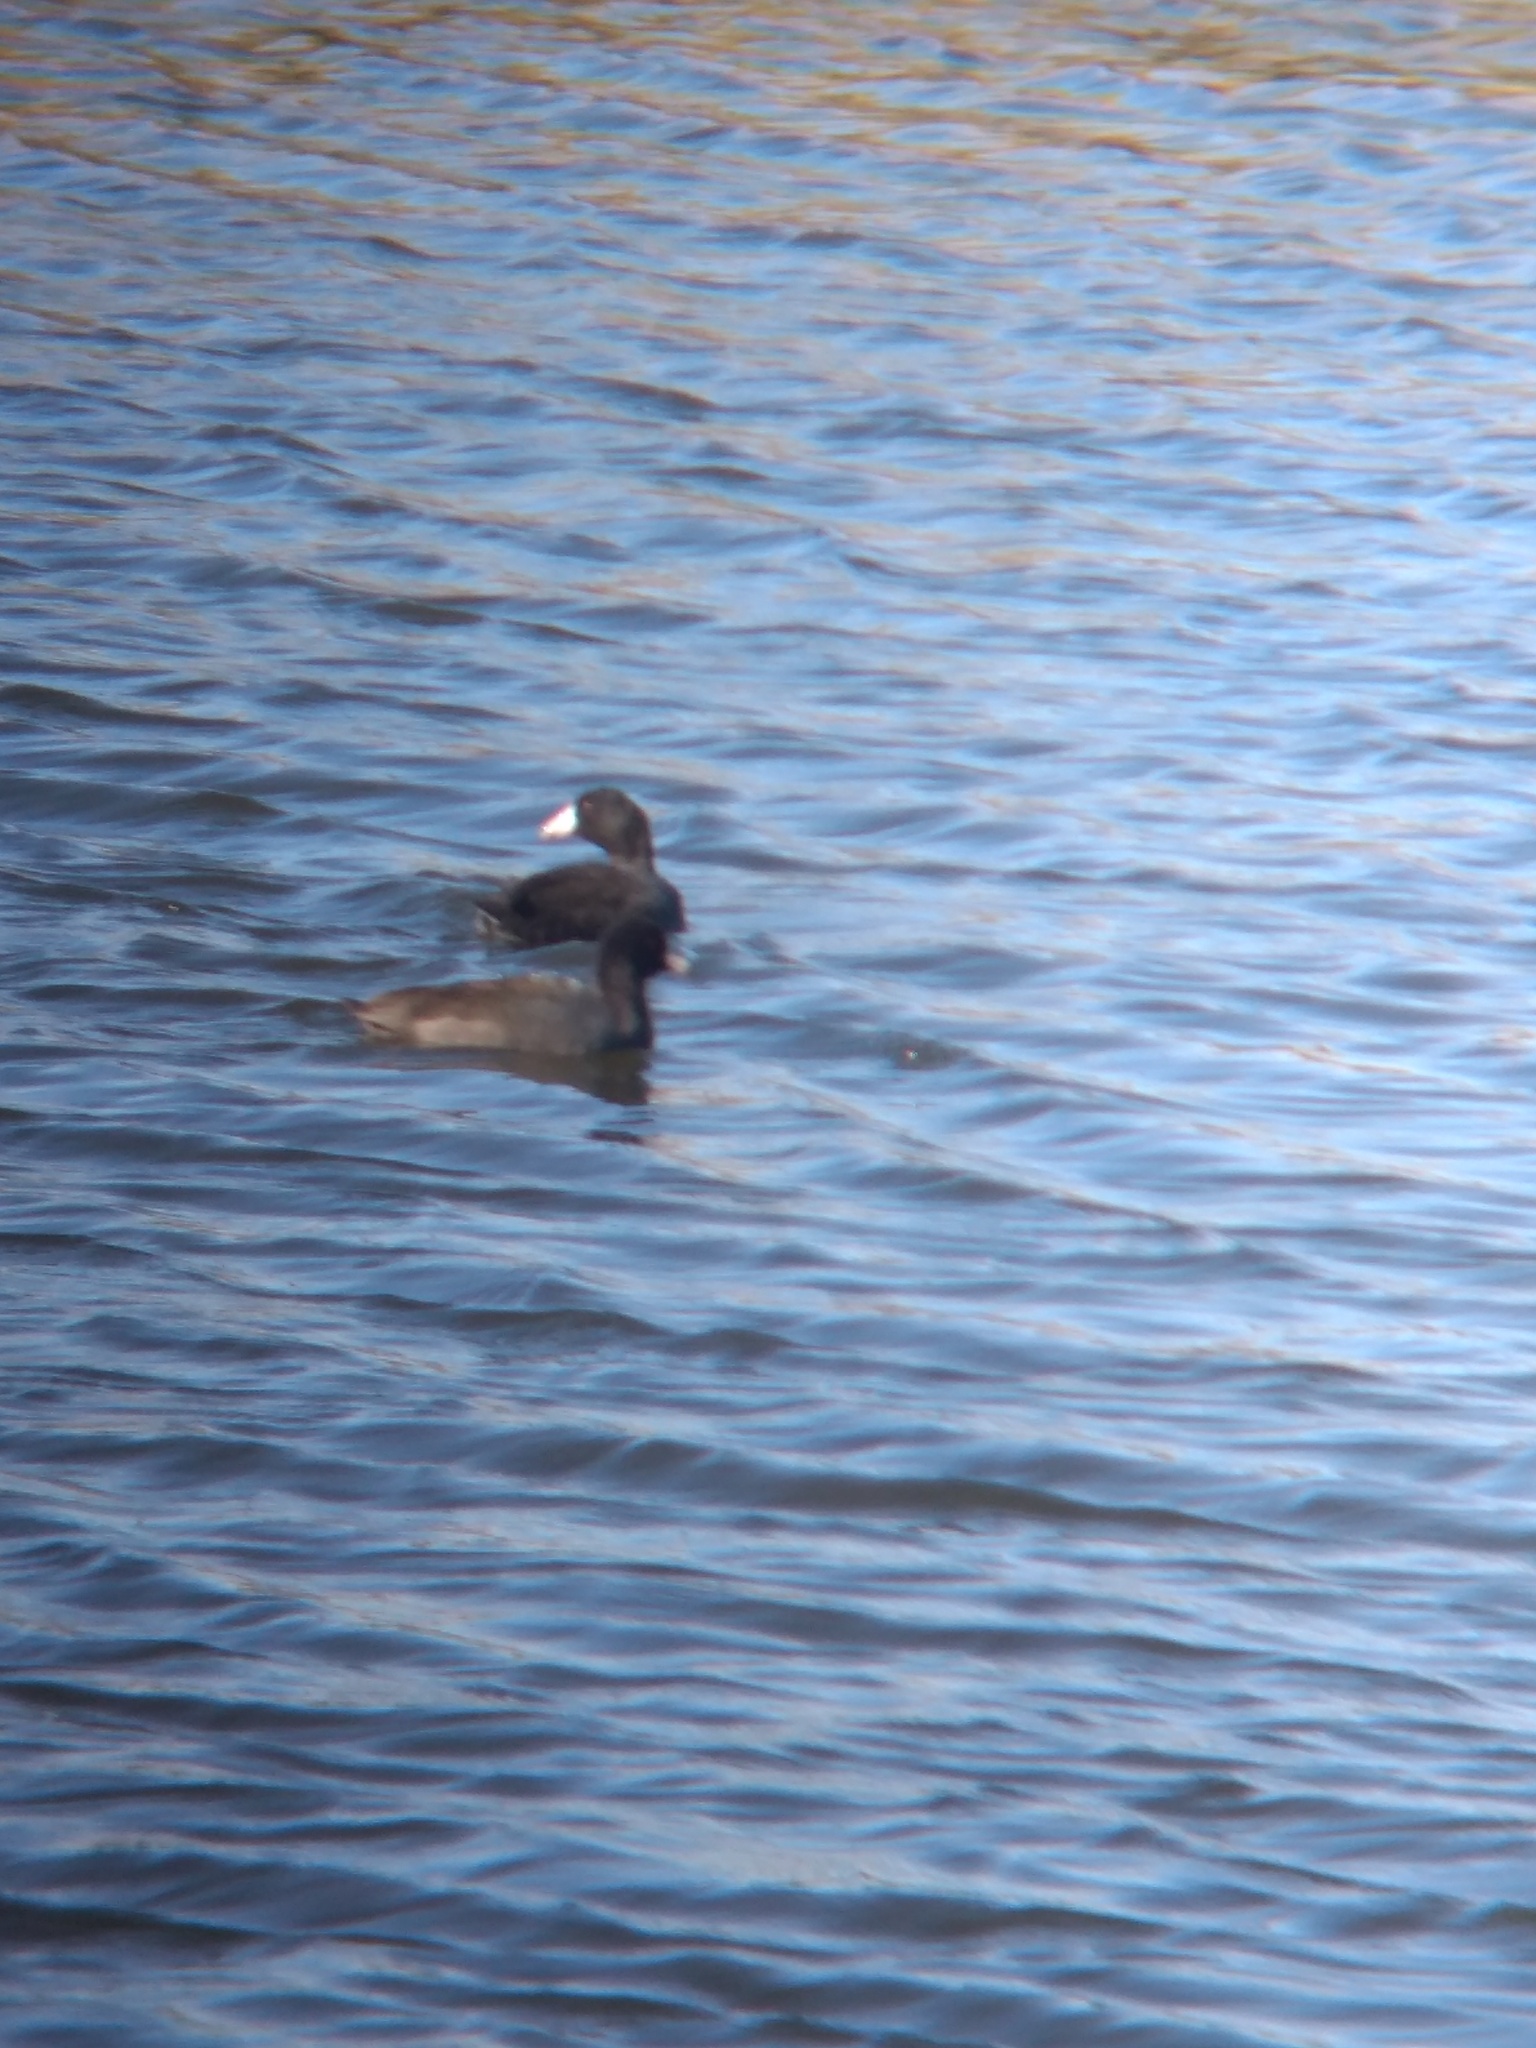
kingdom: Animalia
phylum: Chordata
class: Aves
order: Gruiformes
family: Rallidae
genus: Fulica
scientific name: Fulica americana
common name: American coot
